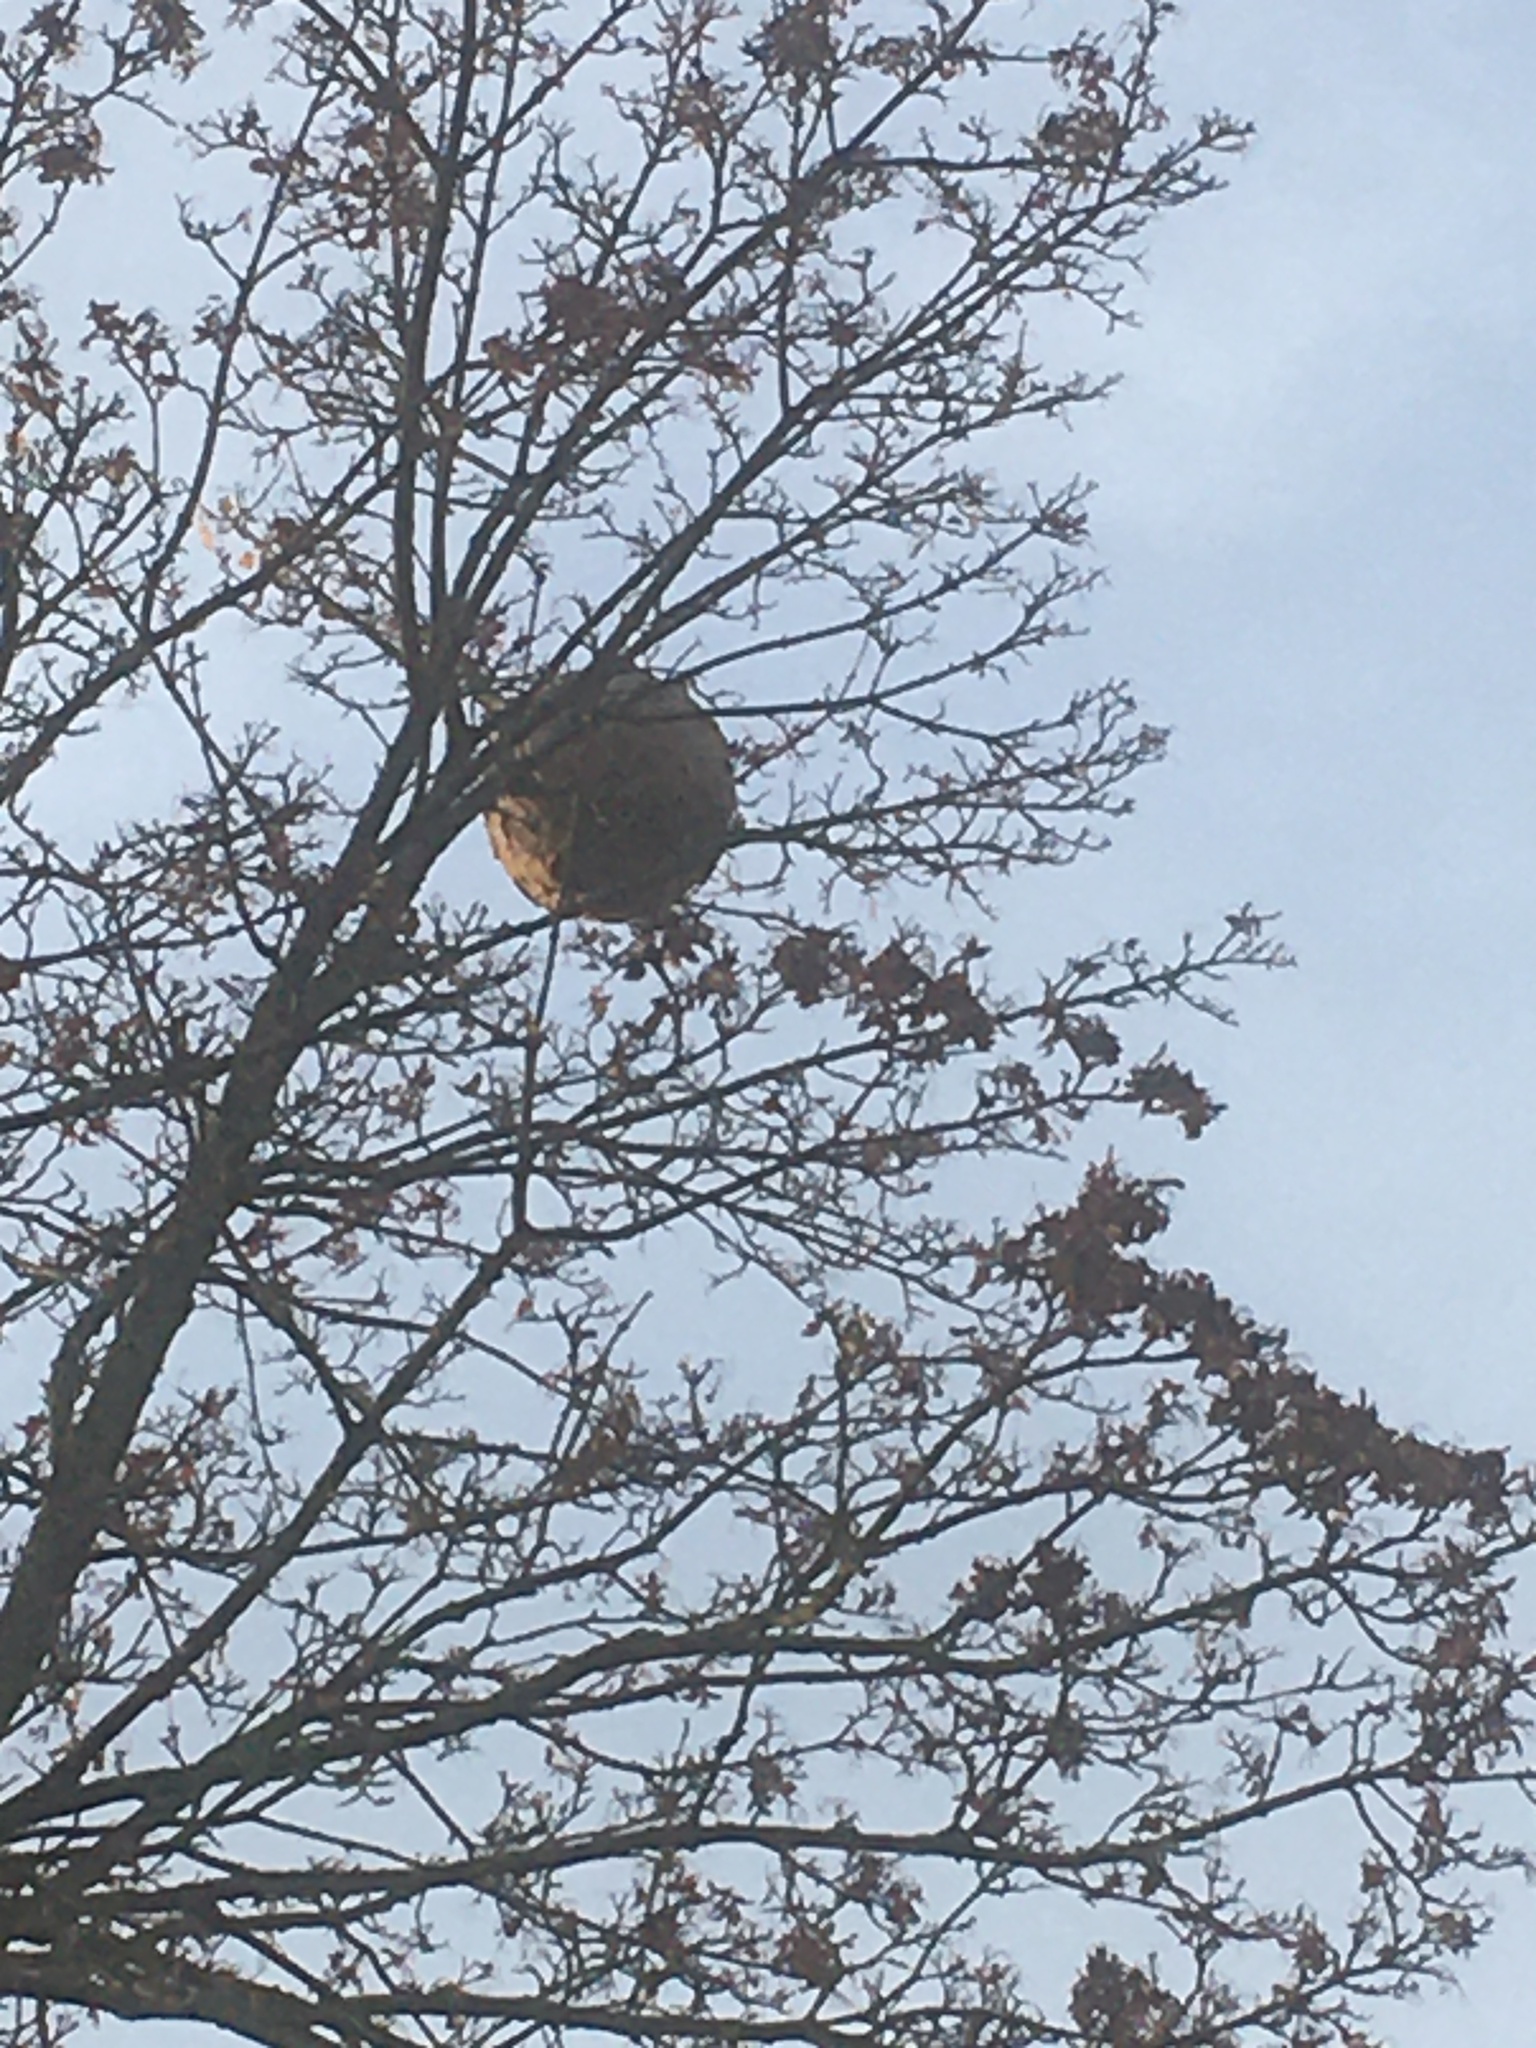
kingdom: Animalia
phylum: Arthropoda
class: Insecta
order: Hymenoptera
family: Vespidae
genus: Vespa
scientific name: Vespa velutina
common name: Asian hornet
